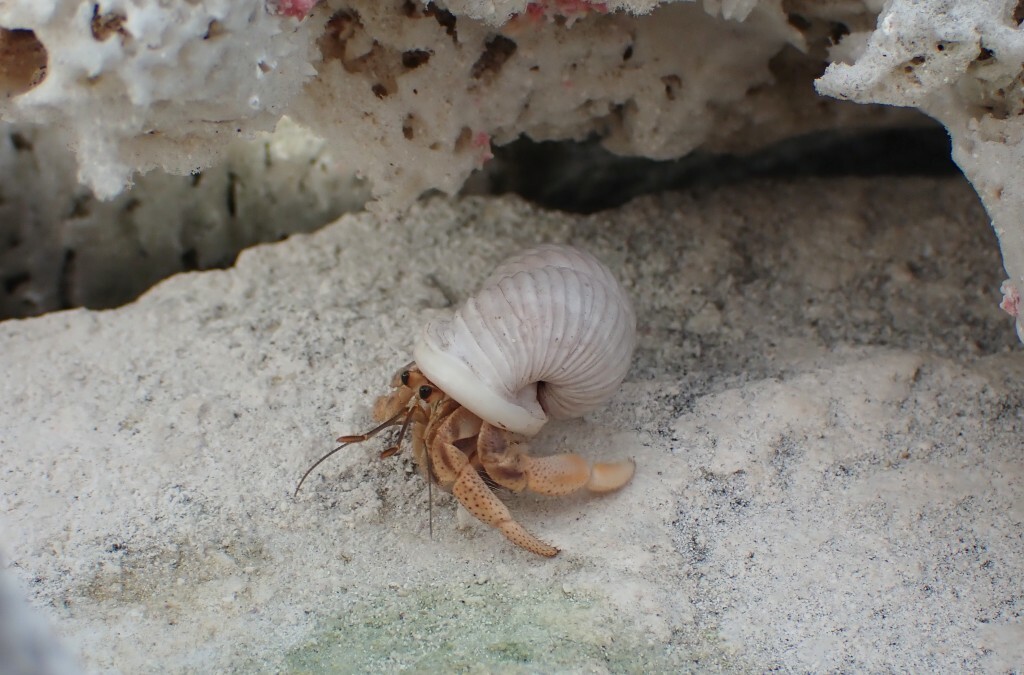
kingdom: Animalia
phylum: Arthropoda
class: Malacostraca
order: Decapoda
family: Coenobitidae
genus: Coenobita
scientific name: Coenobita clypeatus
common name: Caribbean hermit crab
